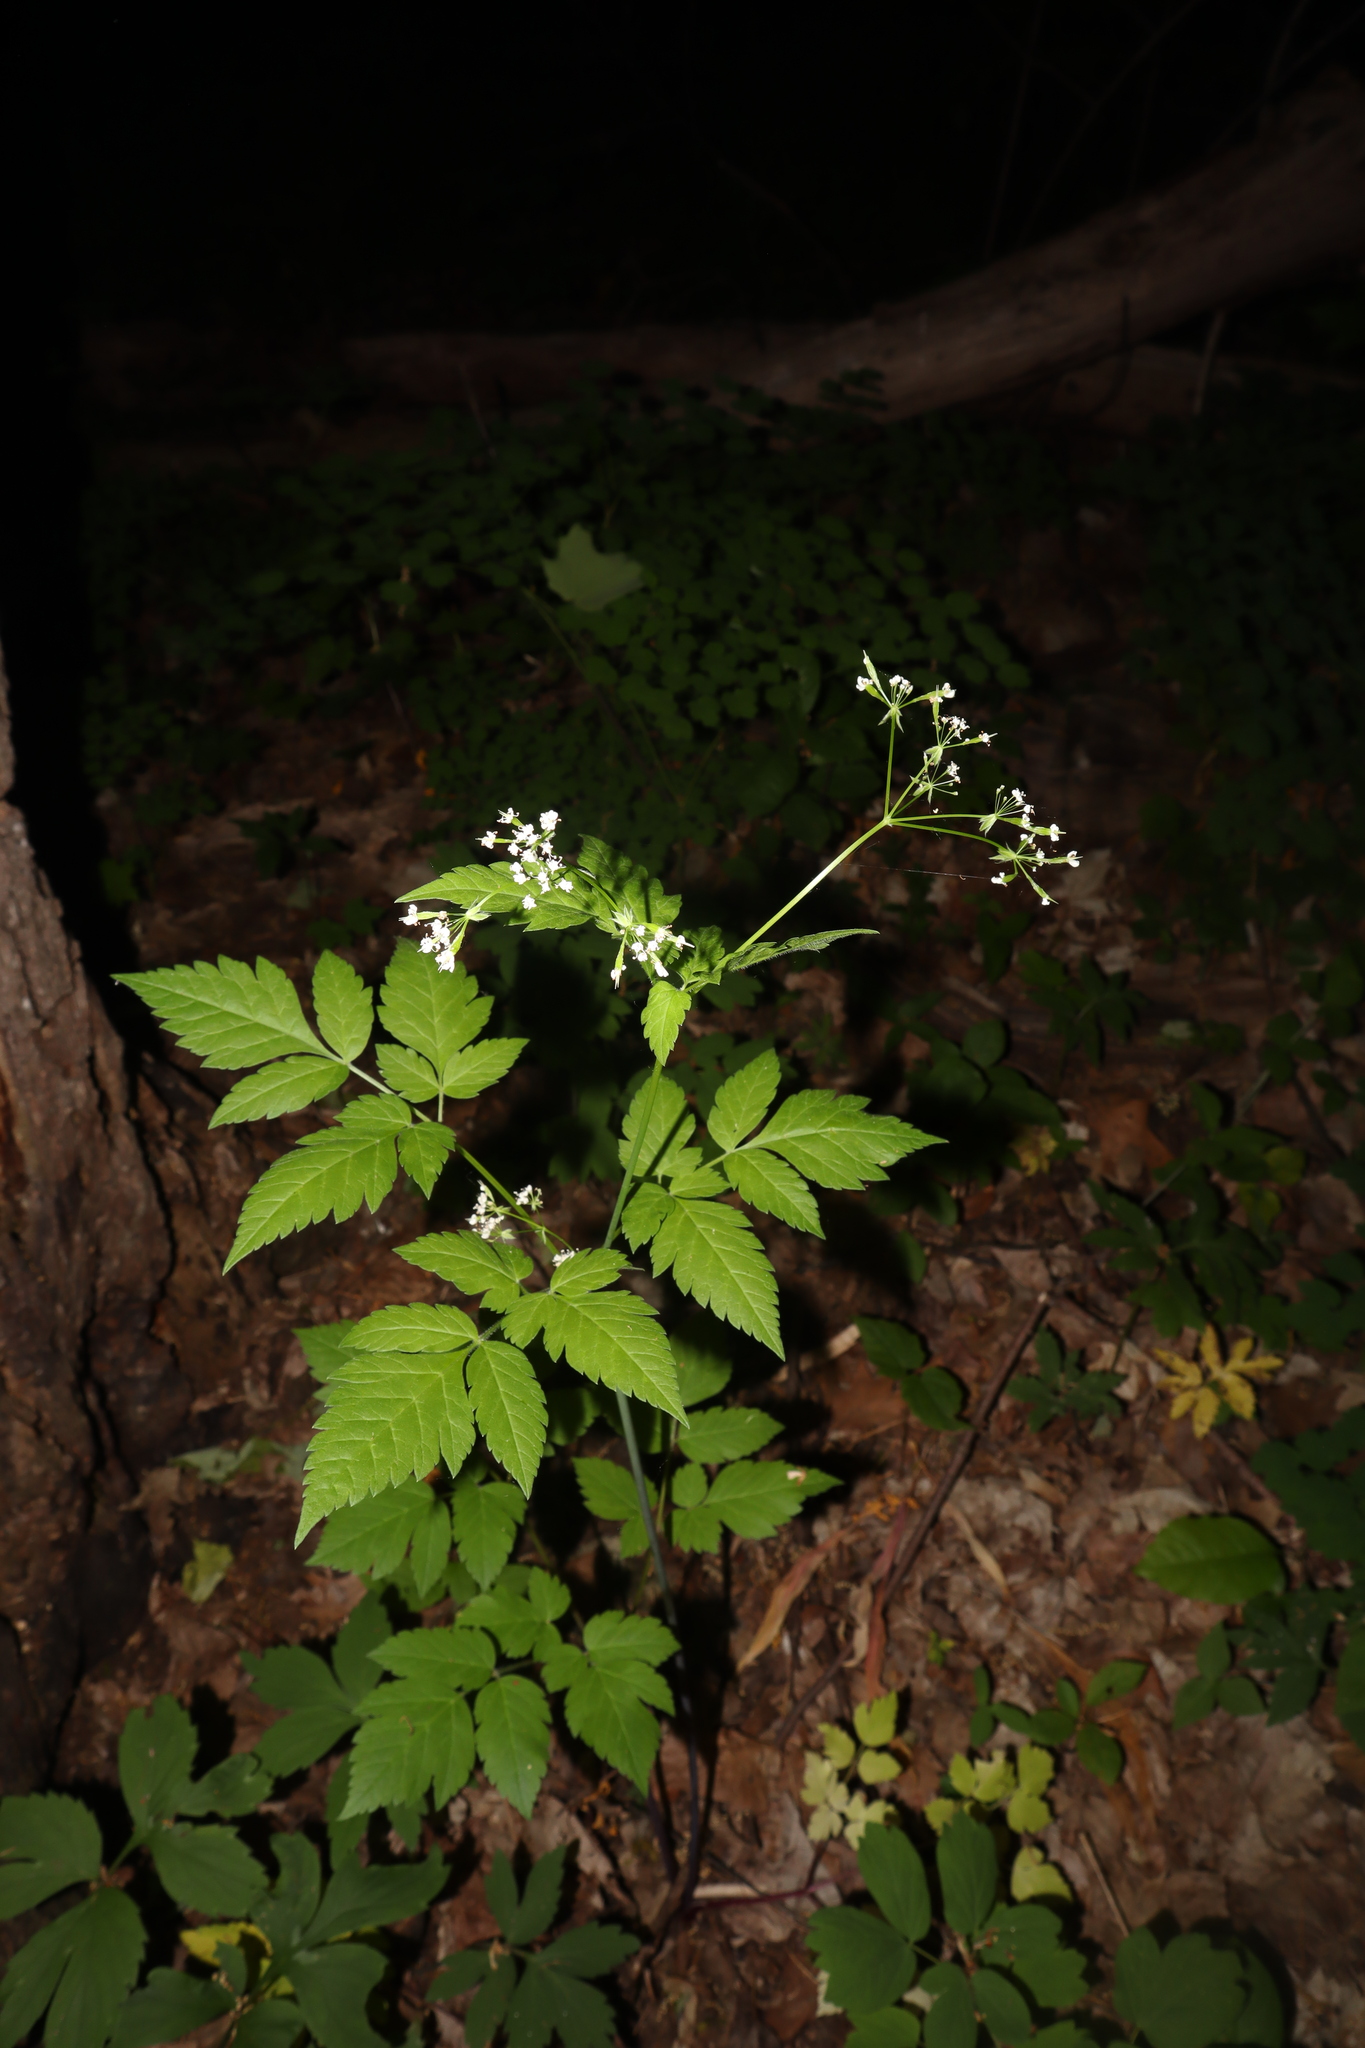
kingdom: Plantae
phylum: Tracheophyta
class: Magnoliopsida
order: Apiales
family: Apiaceae
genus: Osmorhiza
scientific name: Osmorhiza longistylis
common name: Smooth sweet cicely
